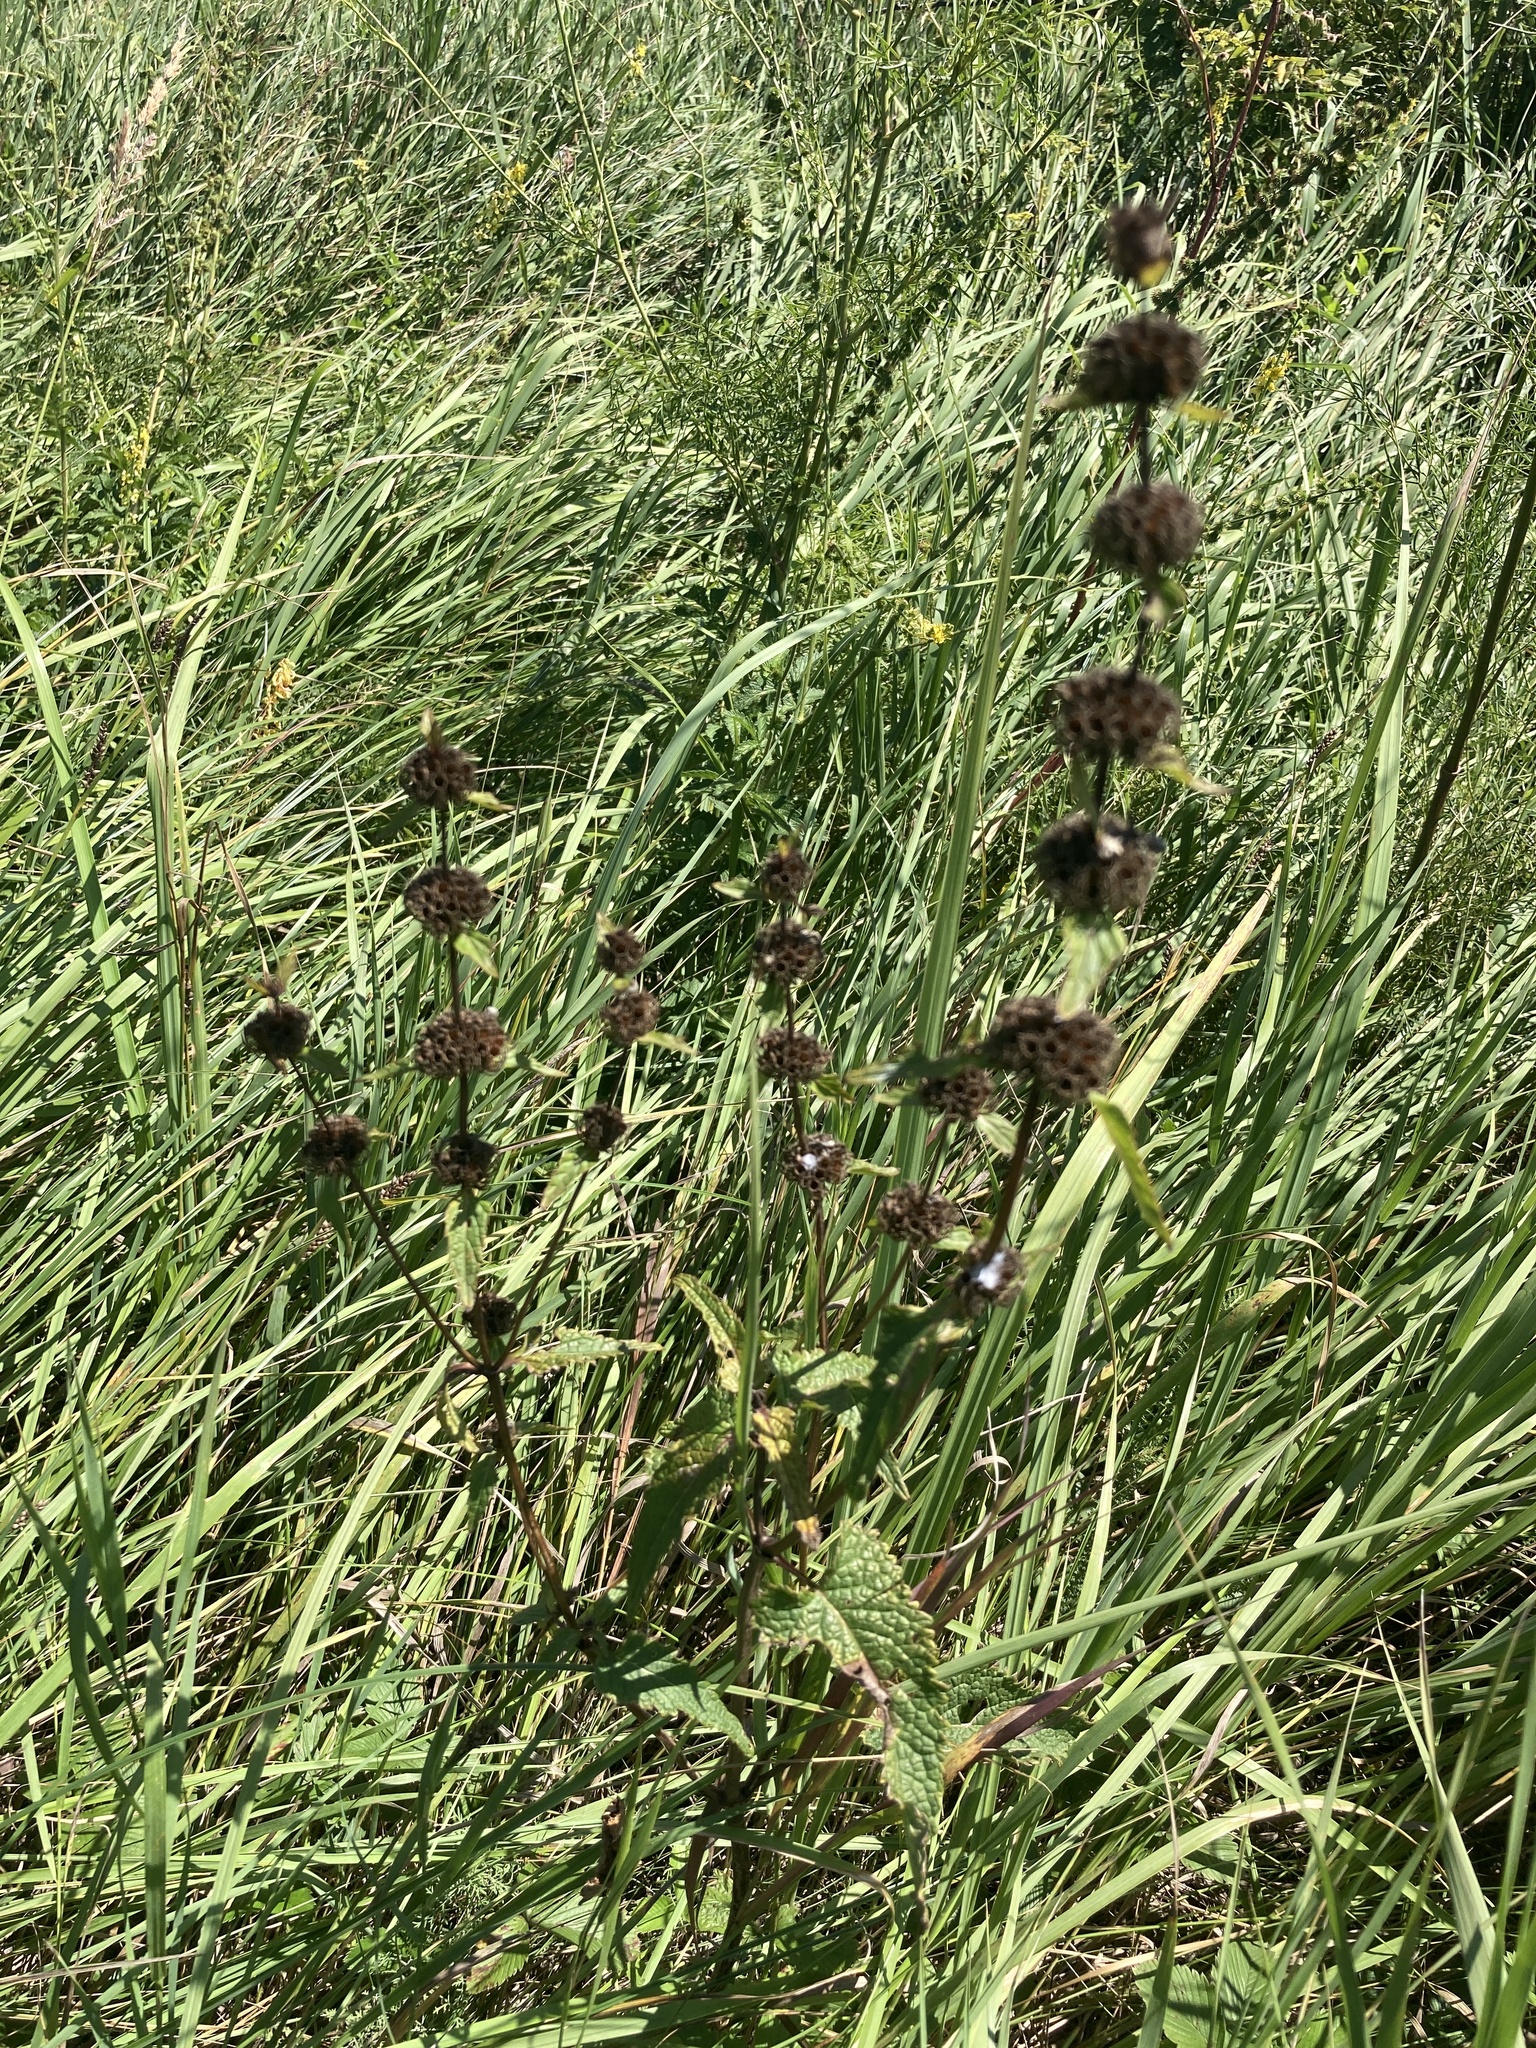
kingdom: Plantae
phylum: Tracheophyta
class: Magnoliopsida
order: Lamiales
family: Lamiaceae
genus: Phlomoides
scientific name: Phlomoides tuberosa
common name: Tuberous jerusalem sage
